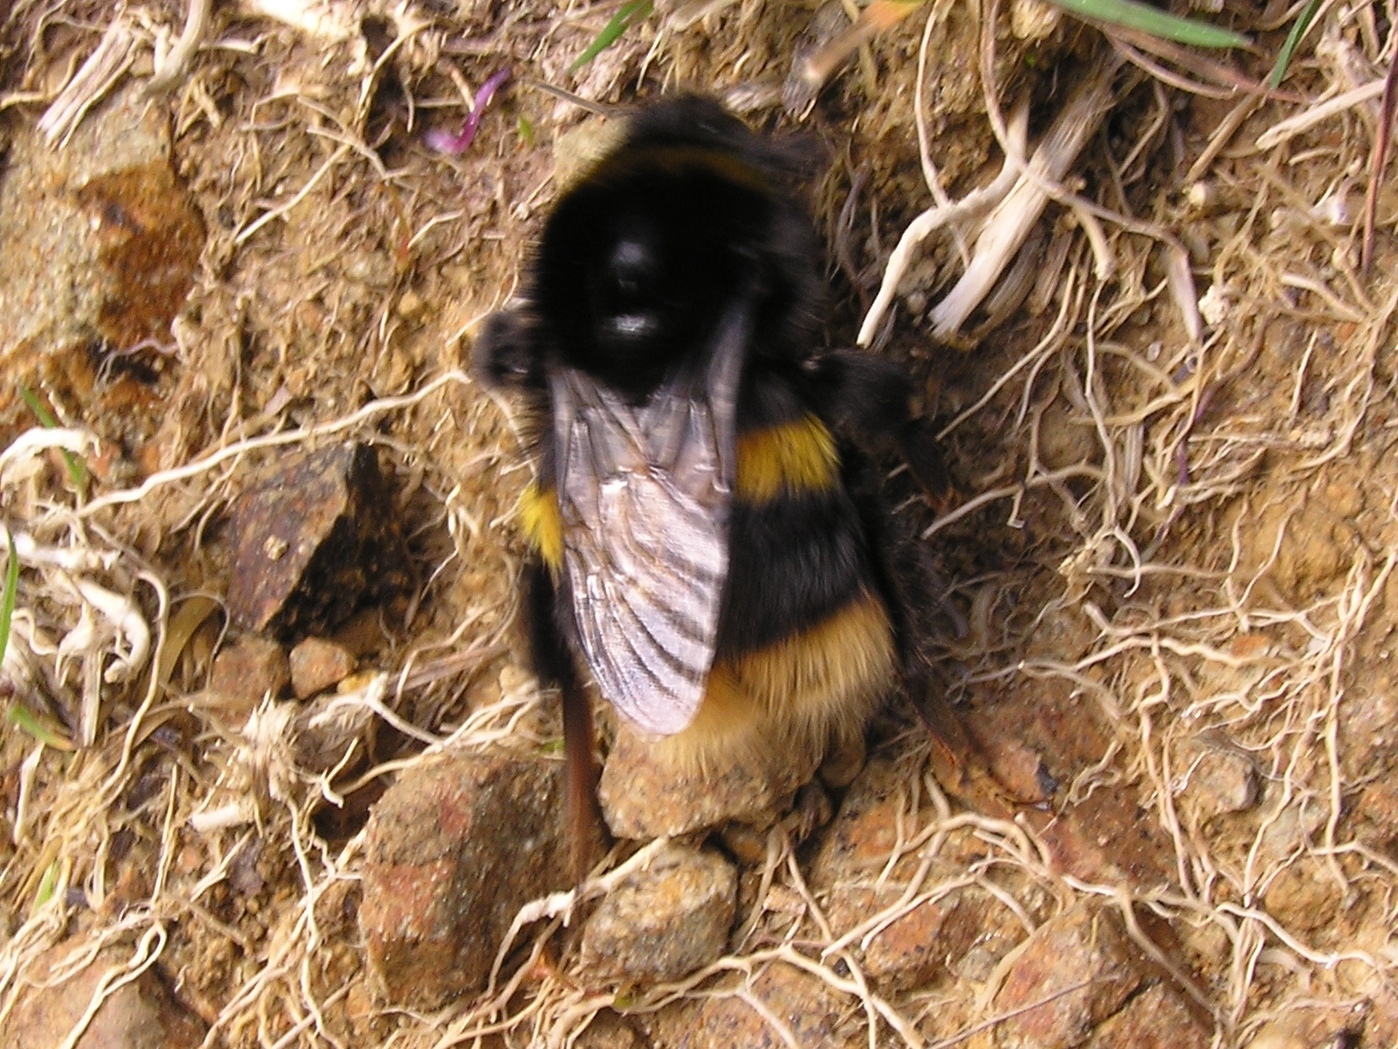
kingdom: Animalia
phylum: Arthropoda
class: Insecta
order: Hymenoptera
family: Apidae
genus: Bombus
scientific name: Bombus terrestris
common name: Buff-tailed bumblebee
